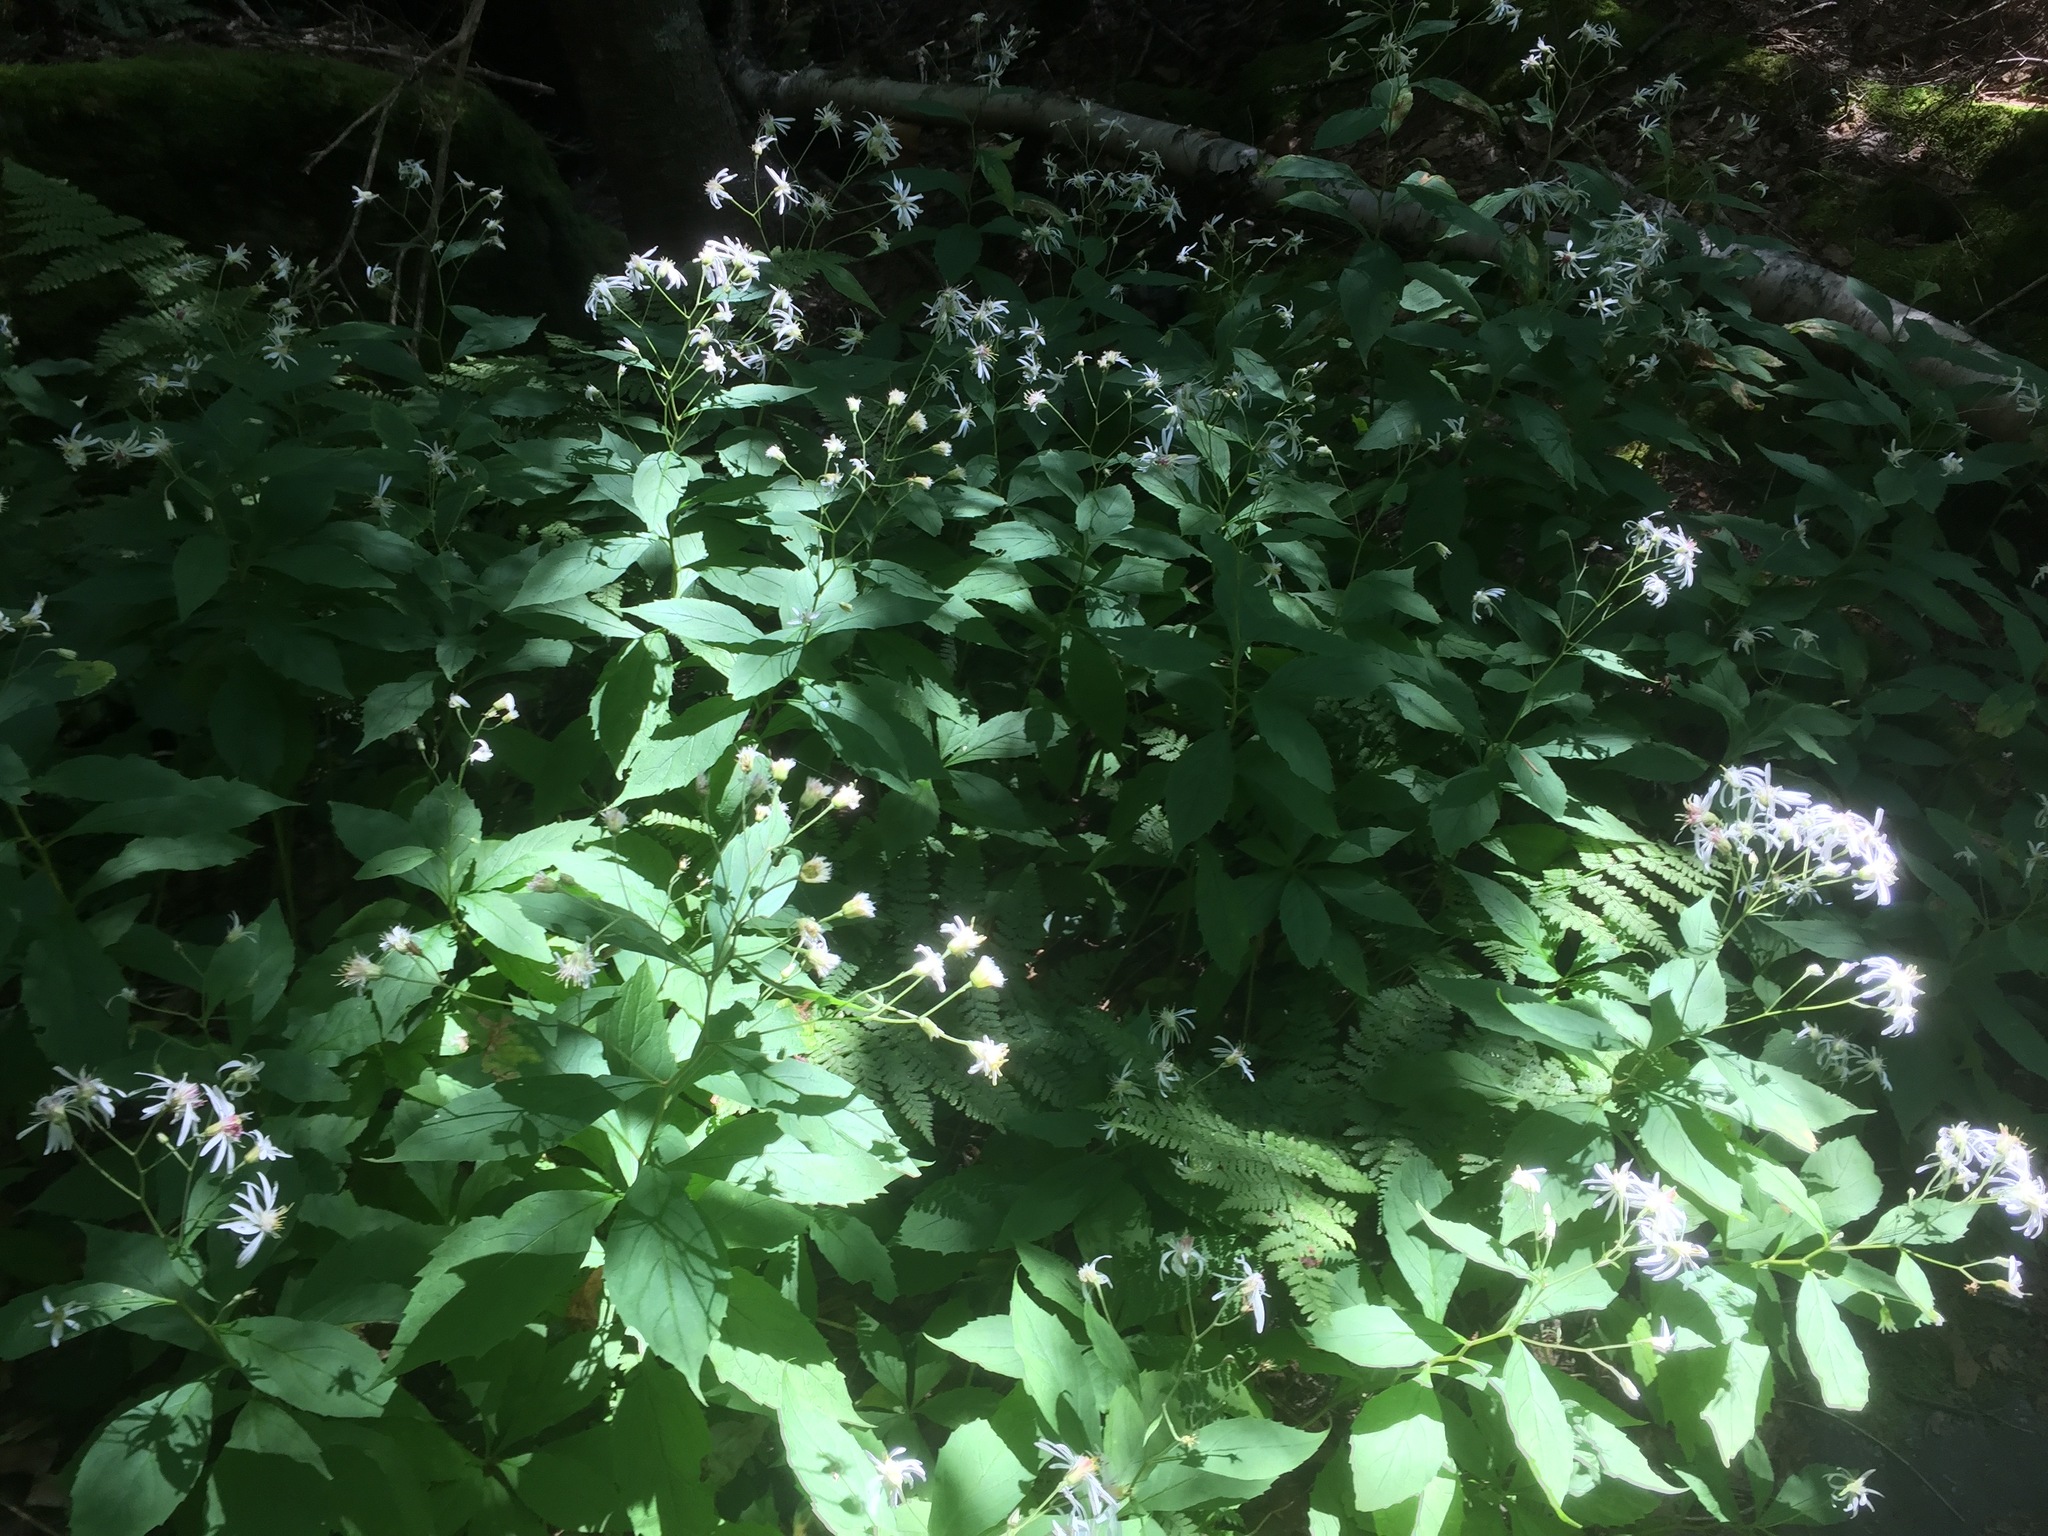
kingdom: Plantae
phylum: Tracheophyta
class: Magnoliopsida
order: Asterales
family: Asteraceae
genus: Oclemena
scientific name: Oclemena acuminata
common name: Mountain aster
